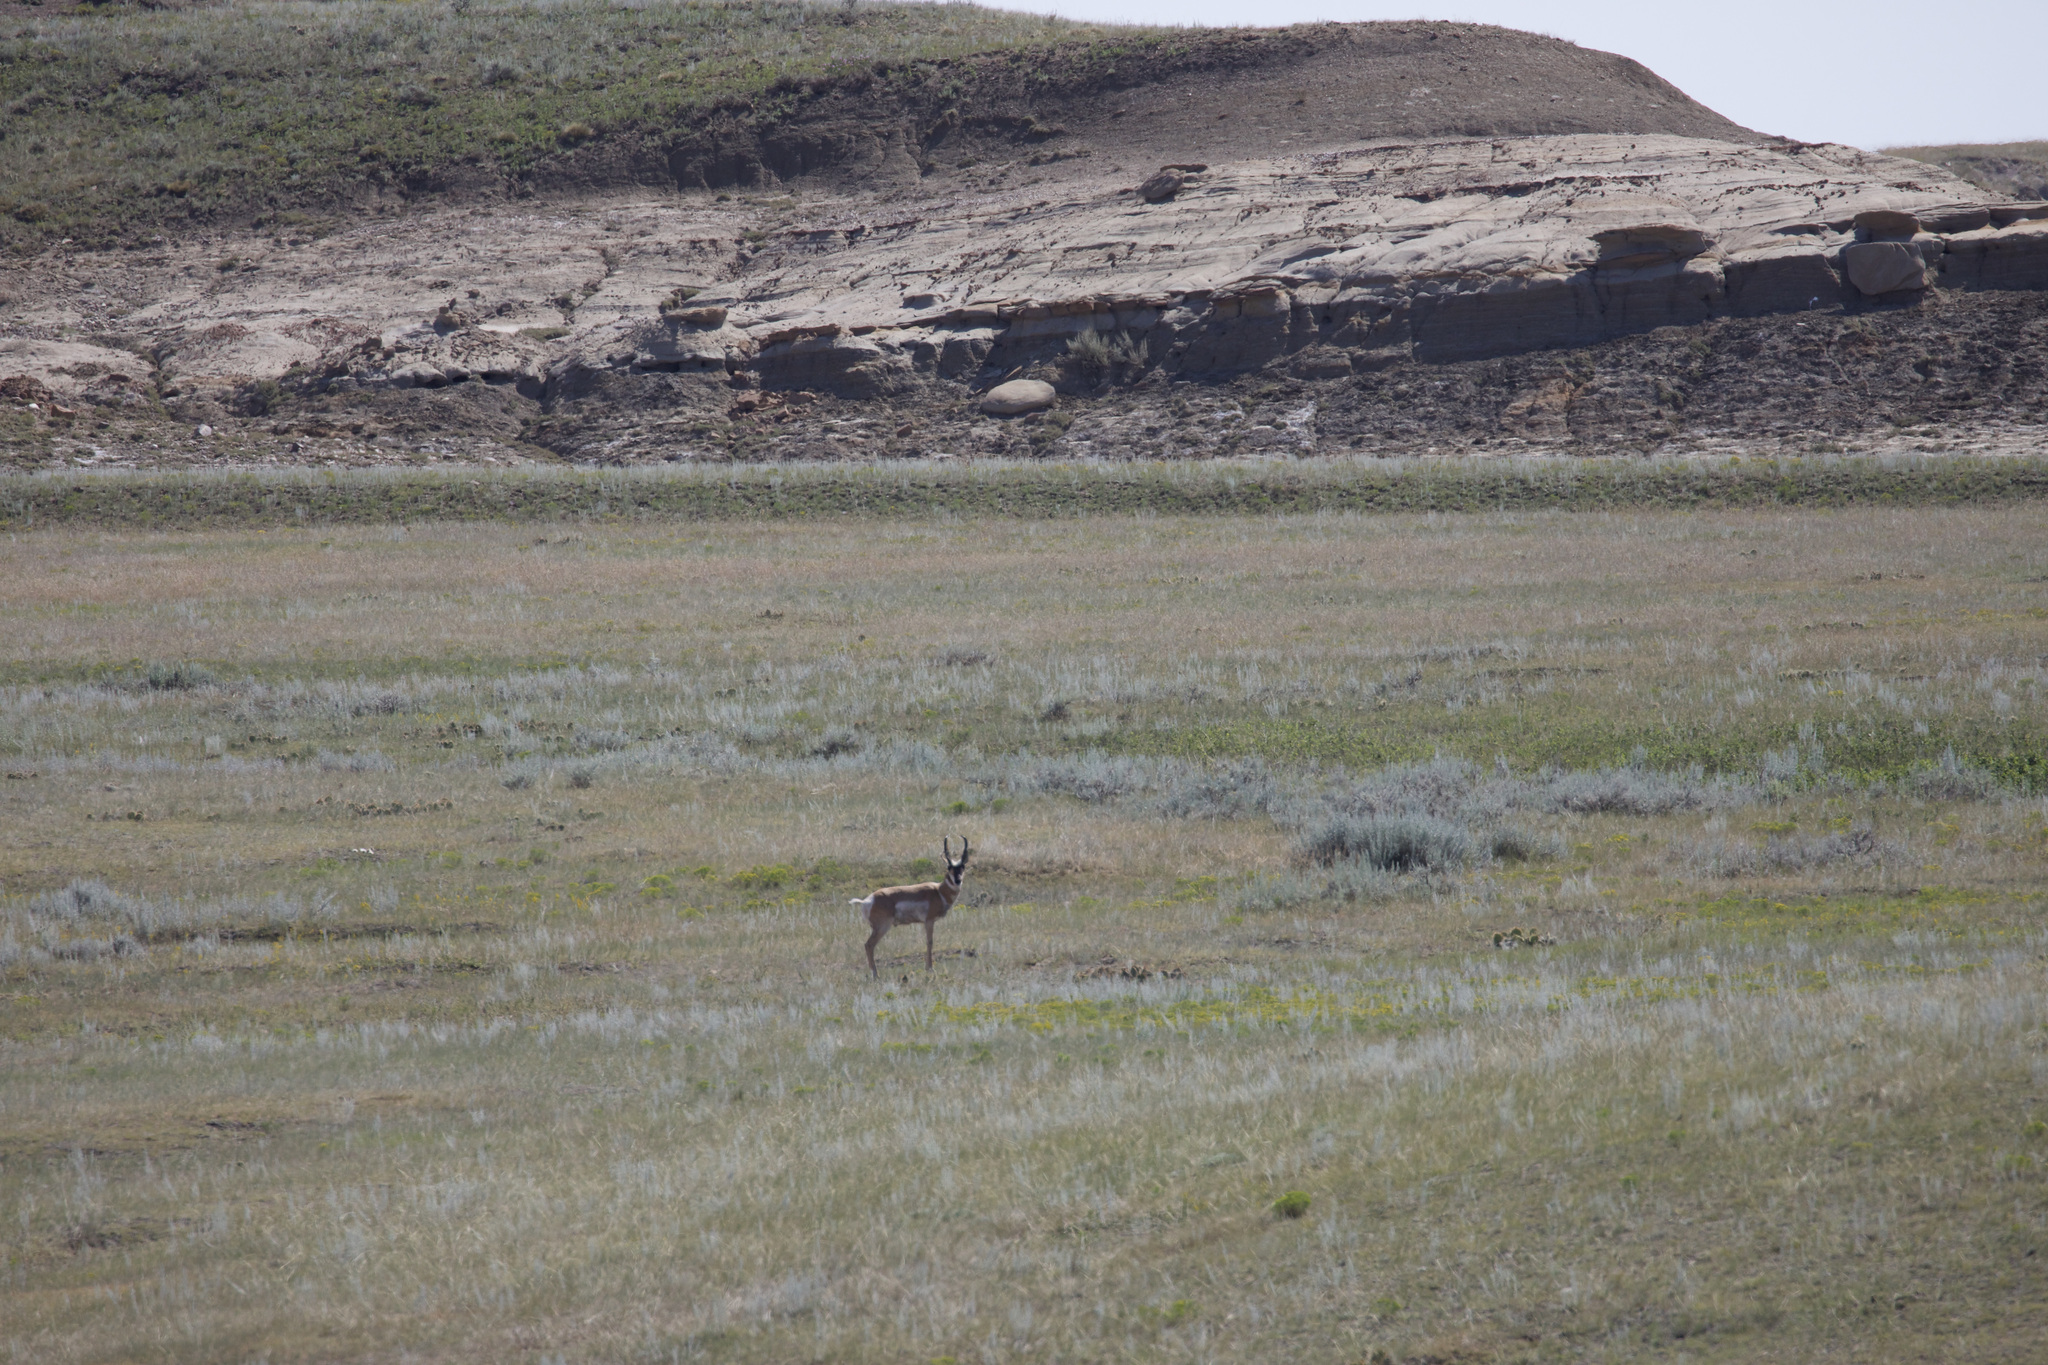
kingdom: Animalia
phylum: Chordata
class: Mammalia
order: Artiodactyla
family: Antilocapridae
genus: Antilocapra
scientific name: Antilocapra americana
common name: Pronghorn
